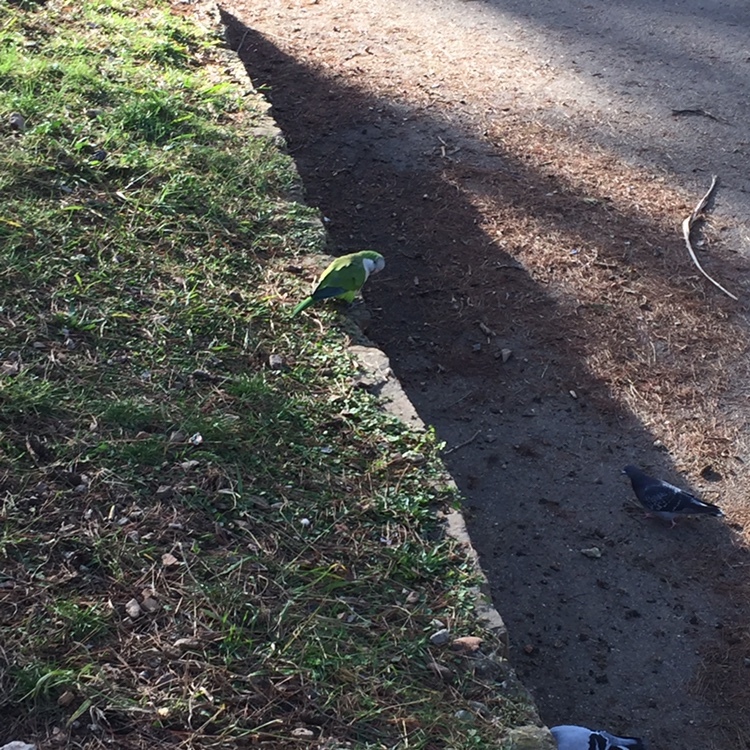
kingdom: Animalia
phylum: Chordata
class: Aves
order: Psittaciformes
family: Psittacidae
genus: Myiopsitta
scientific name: Myiopsitta monachus
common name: Monk parakeet
